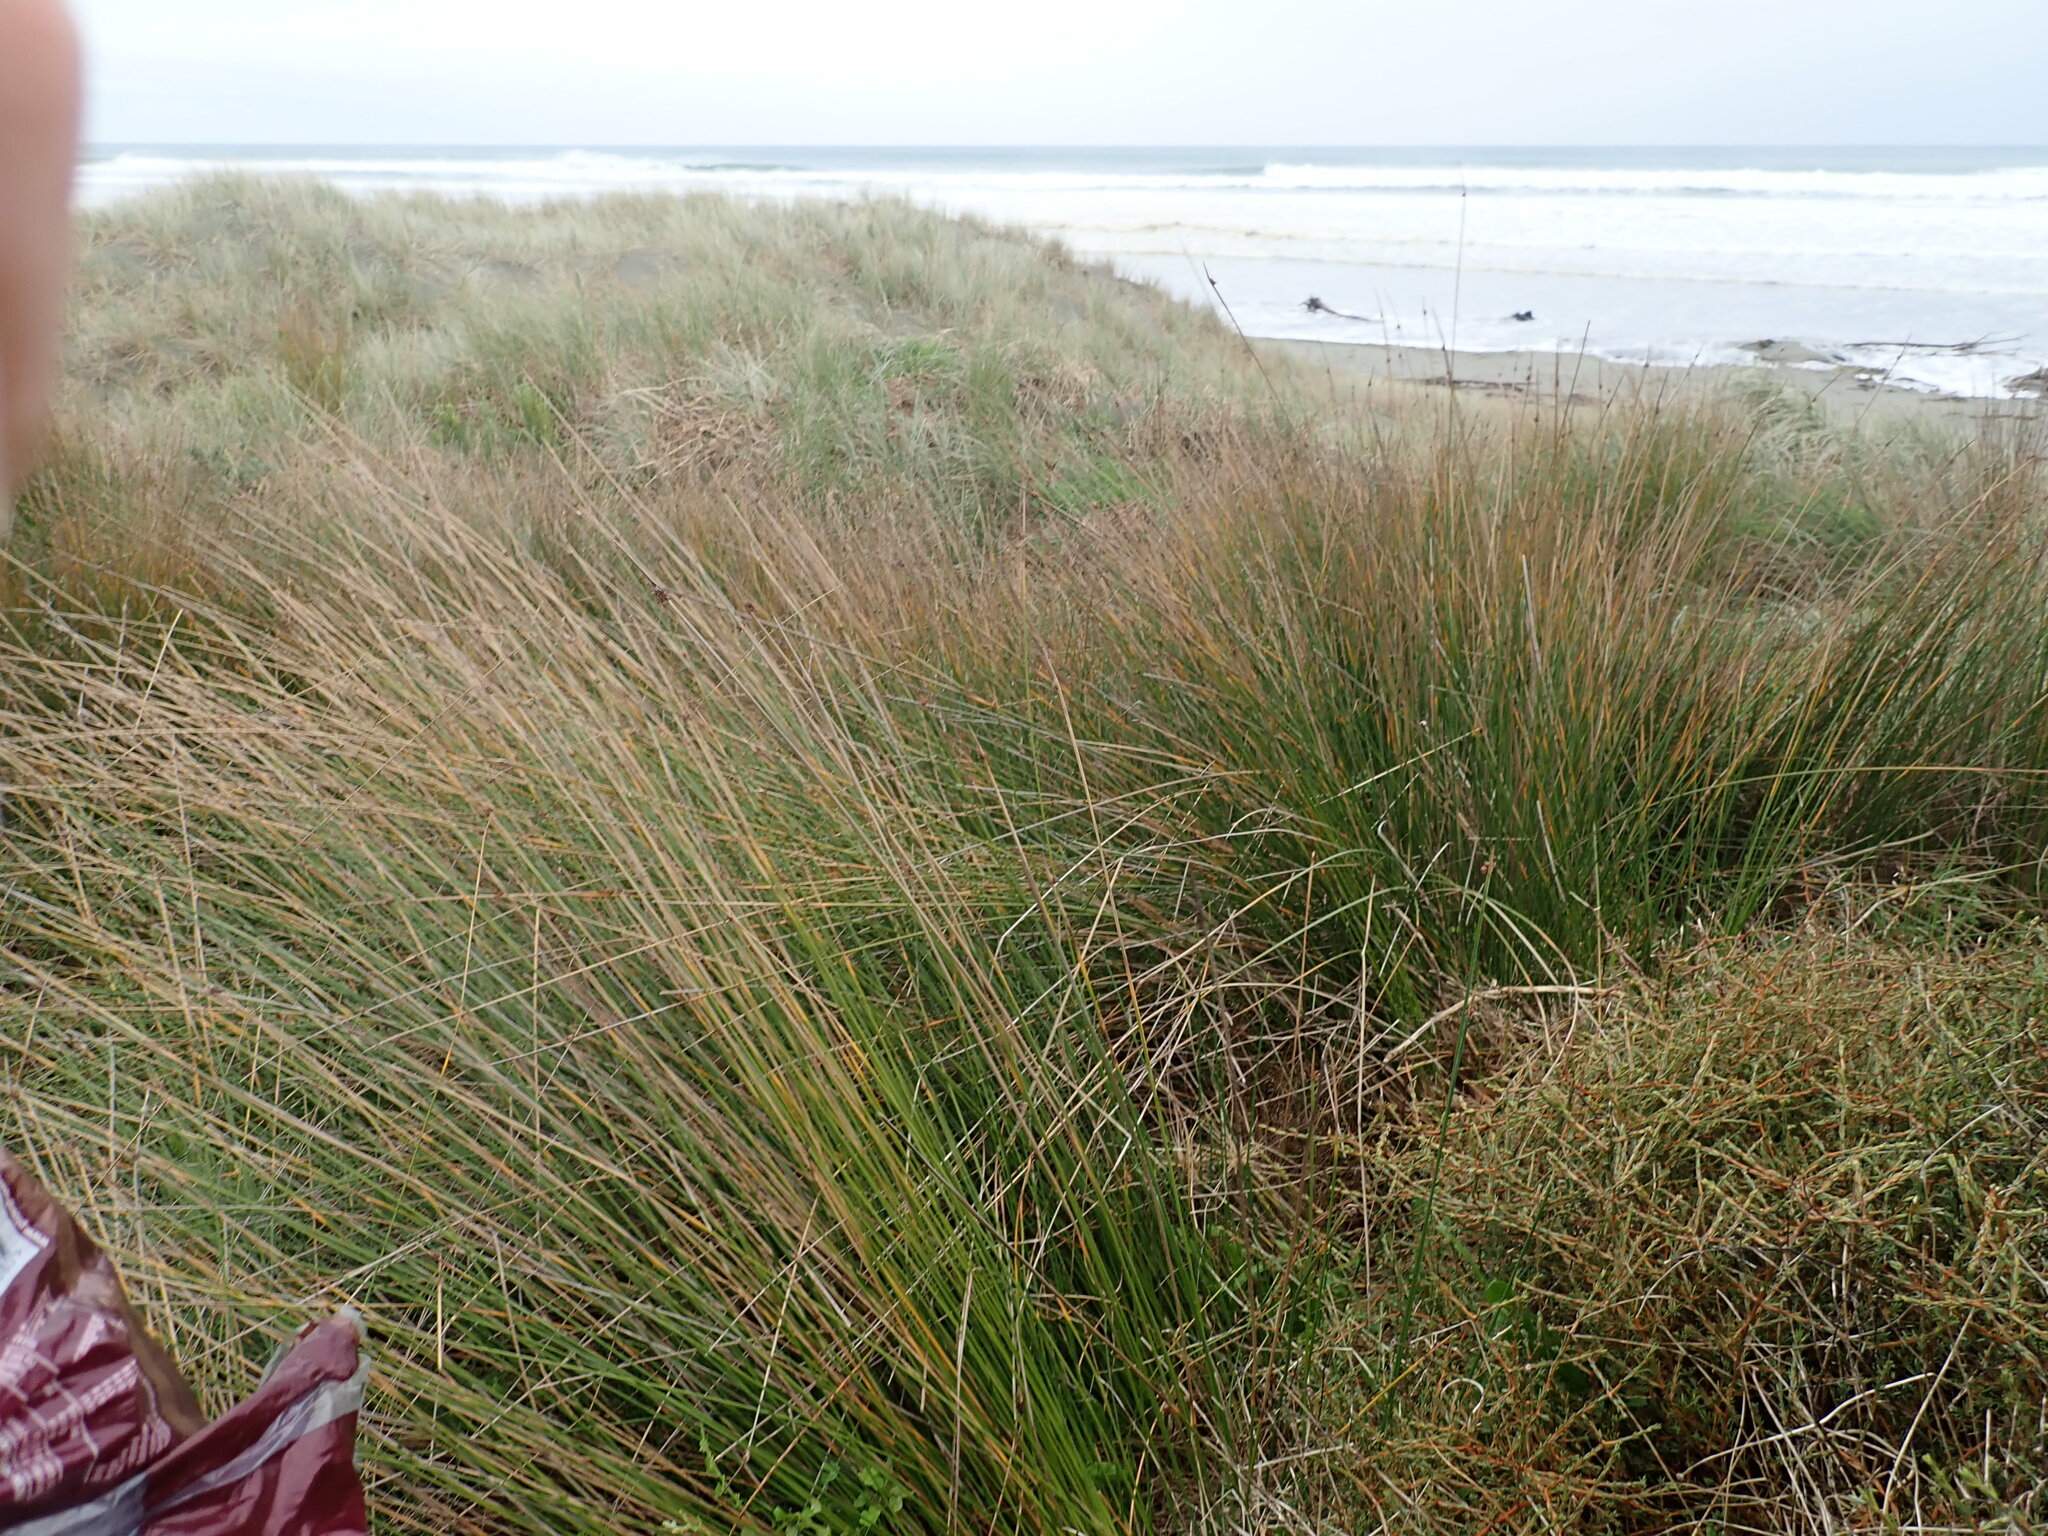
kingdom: Plantae
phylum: Tracheophyta
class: Liliopsida
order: Poales
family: Cyperaceae
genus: Ficinia
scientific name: Ficinia nodosa
